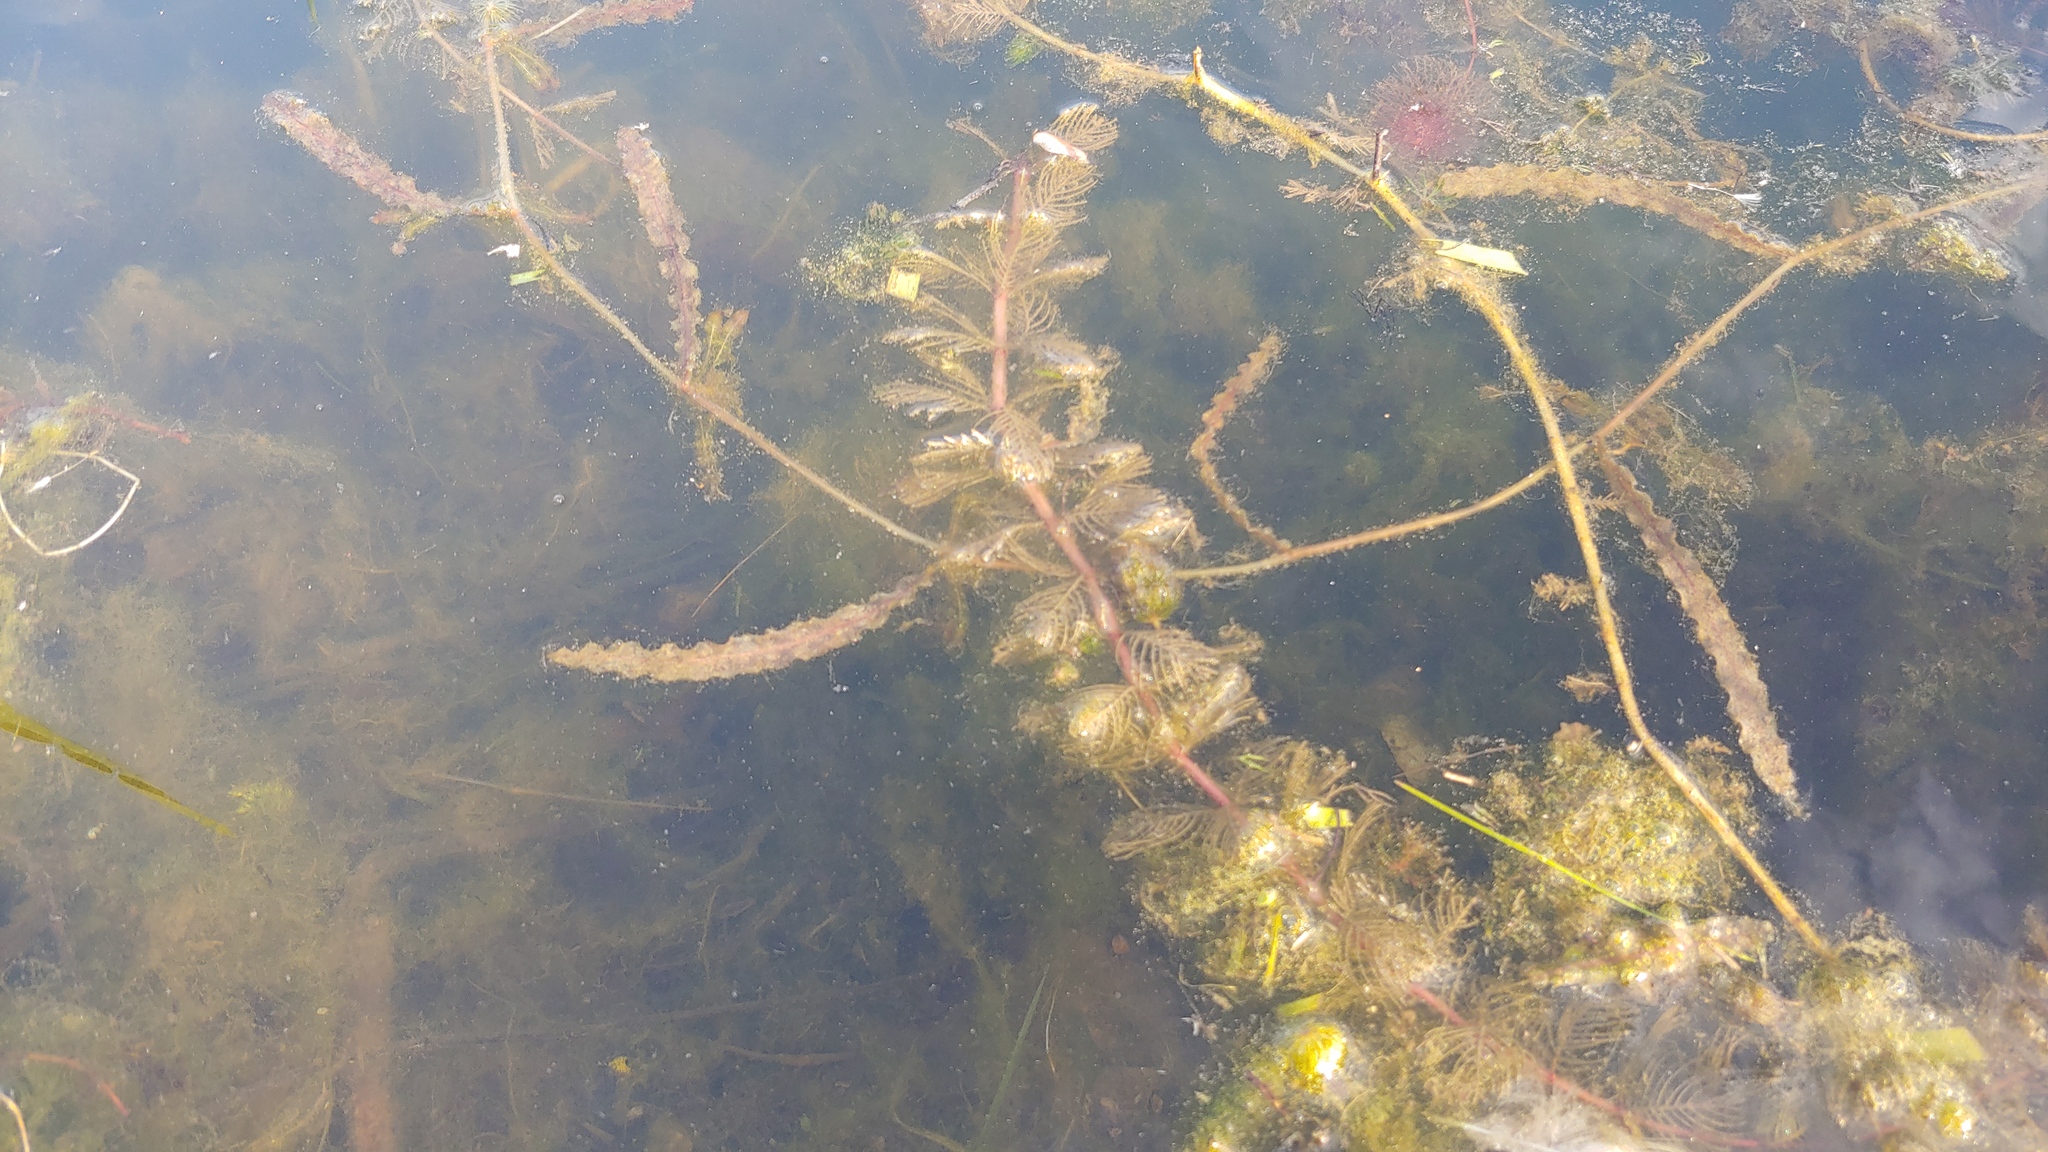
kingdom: Plantae
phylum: Tracheophyta
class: Magnoliopsida
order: Saxifragales
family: Haloragaceae
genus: Myriophyllum
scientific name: Myriophyllum spicatum
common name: Spiked water-milfoil
